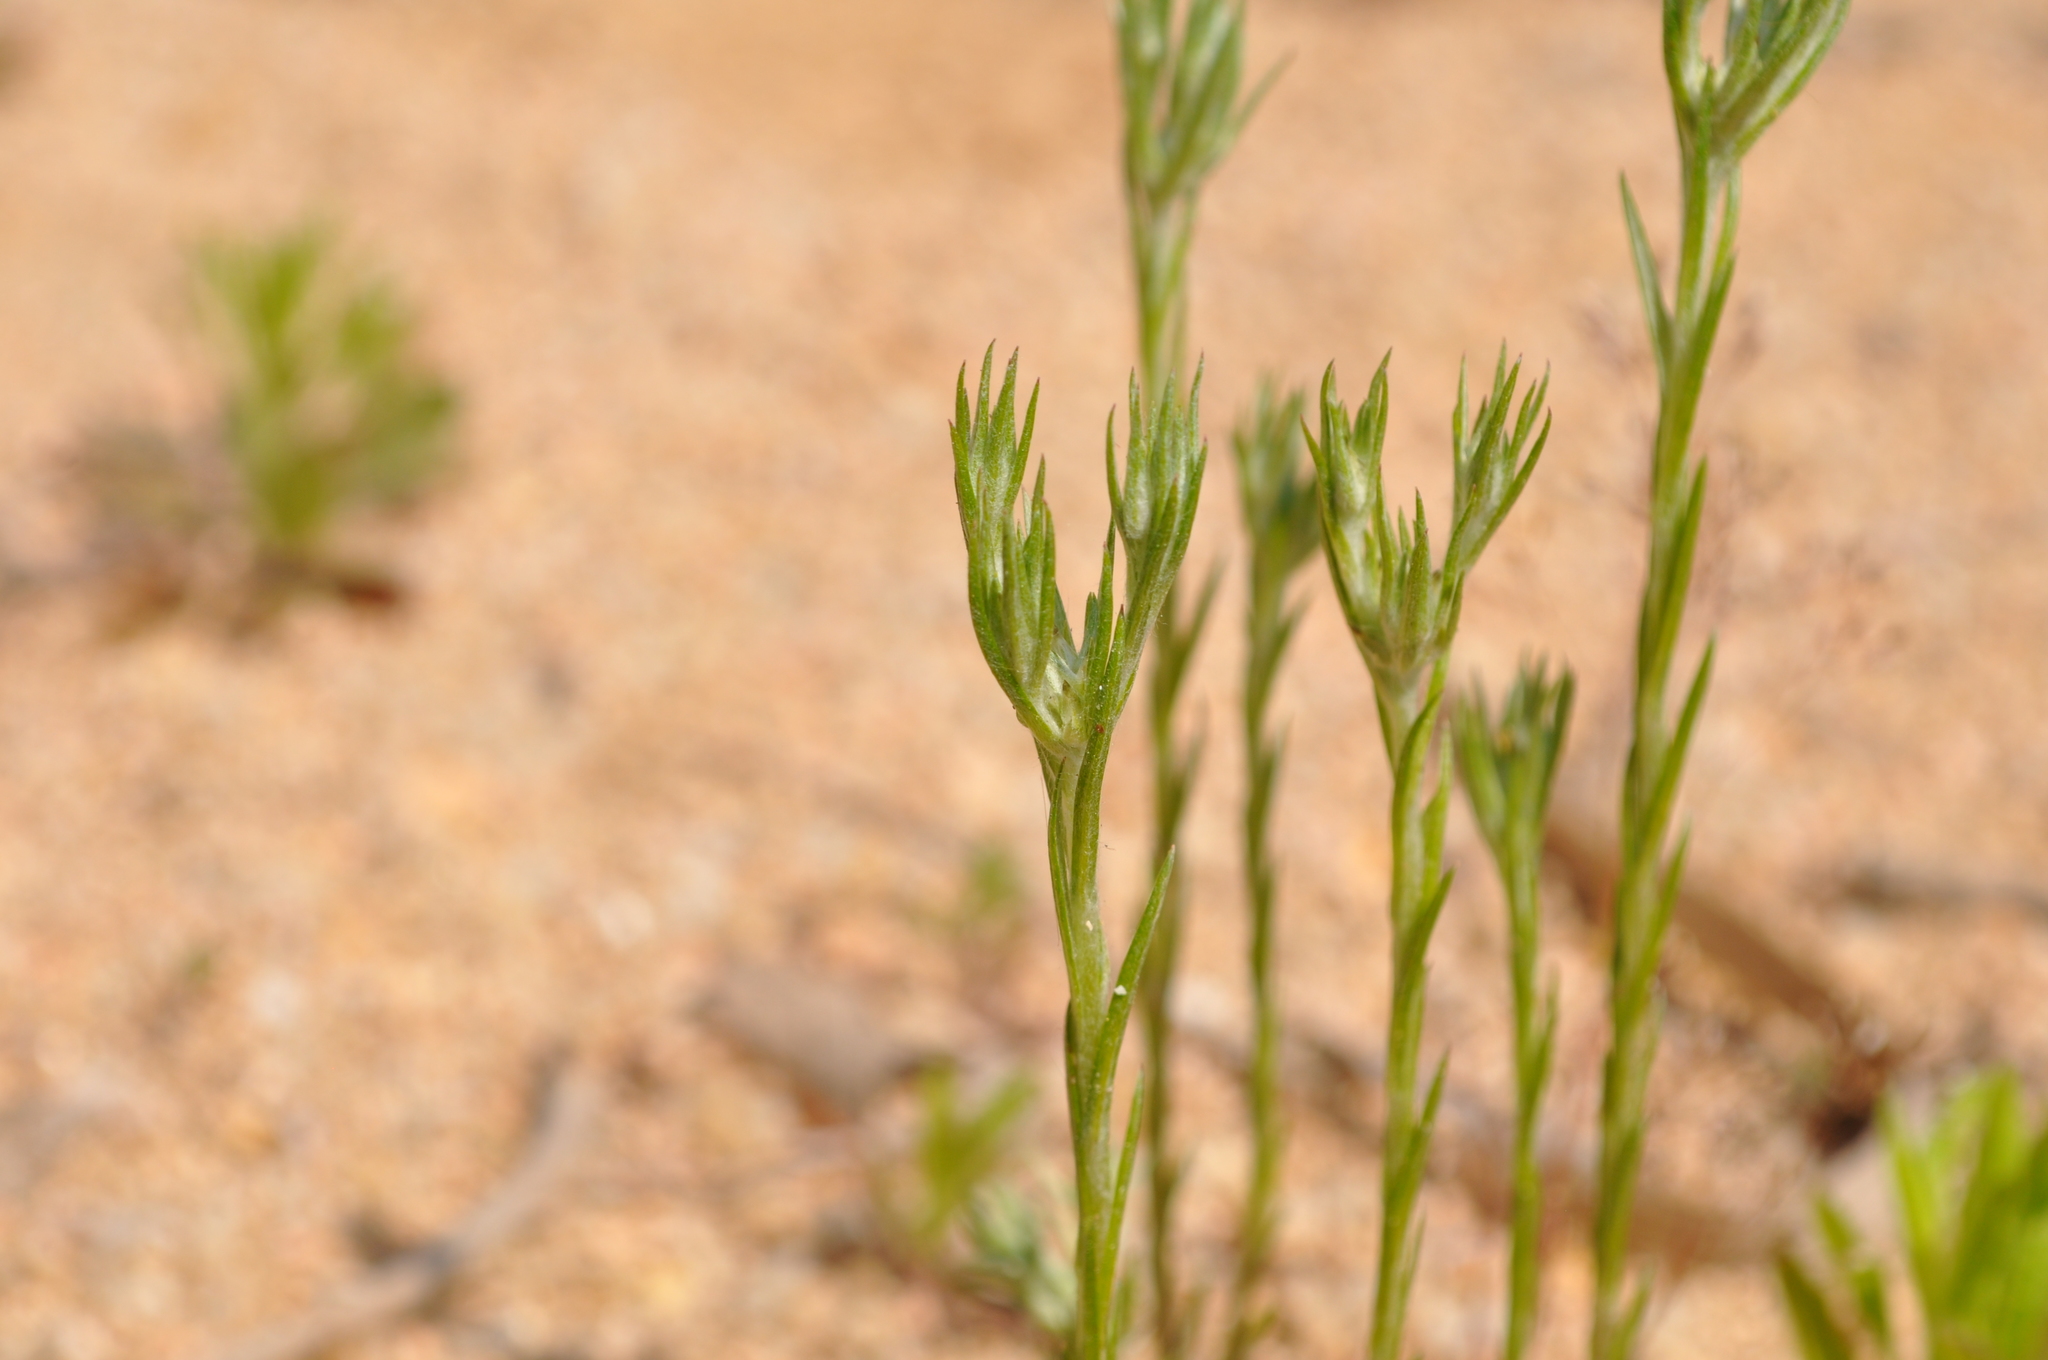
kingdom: Plantae
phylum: Tracheophyta
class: Magnoliopsida
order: Asterales
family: Asteraceae
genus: Logfia
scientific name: Logfia gallica
